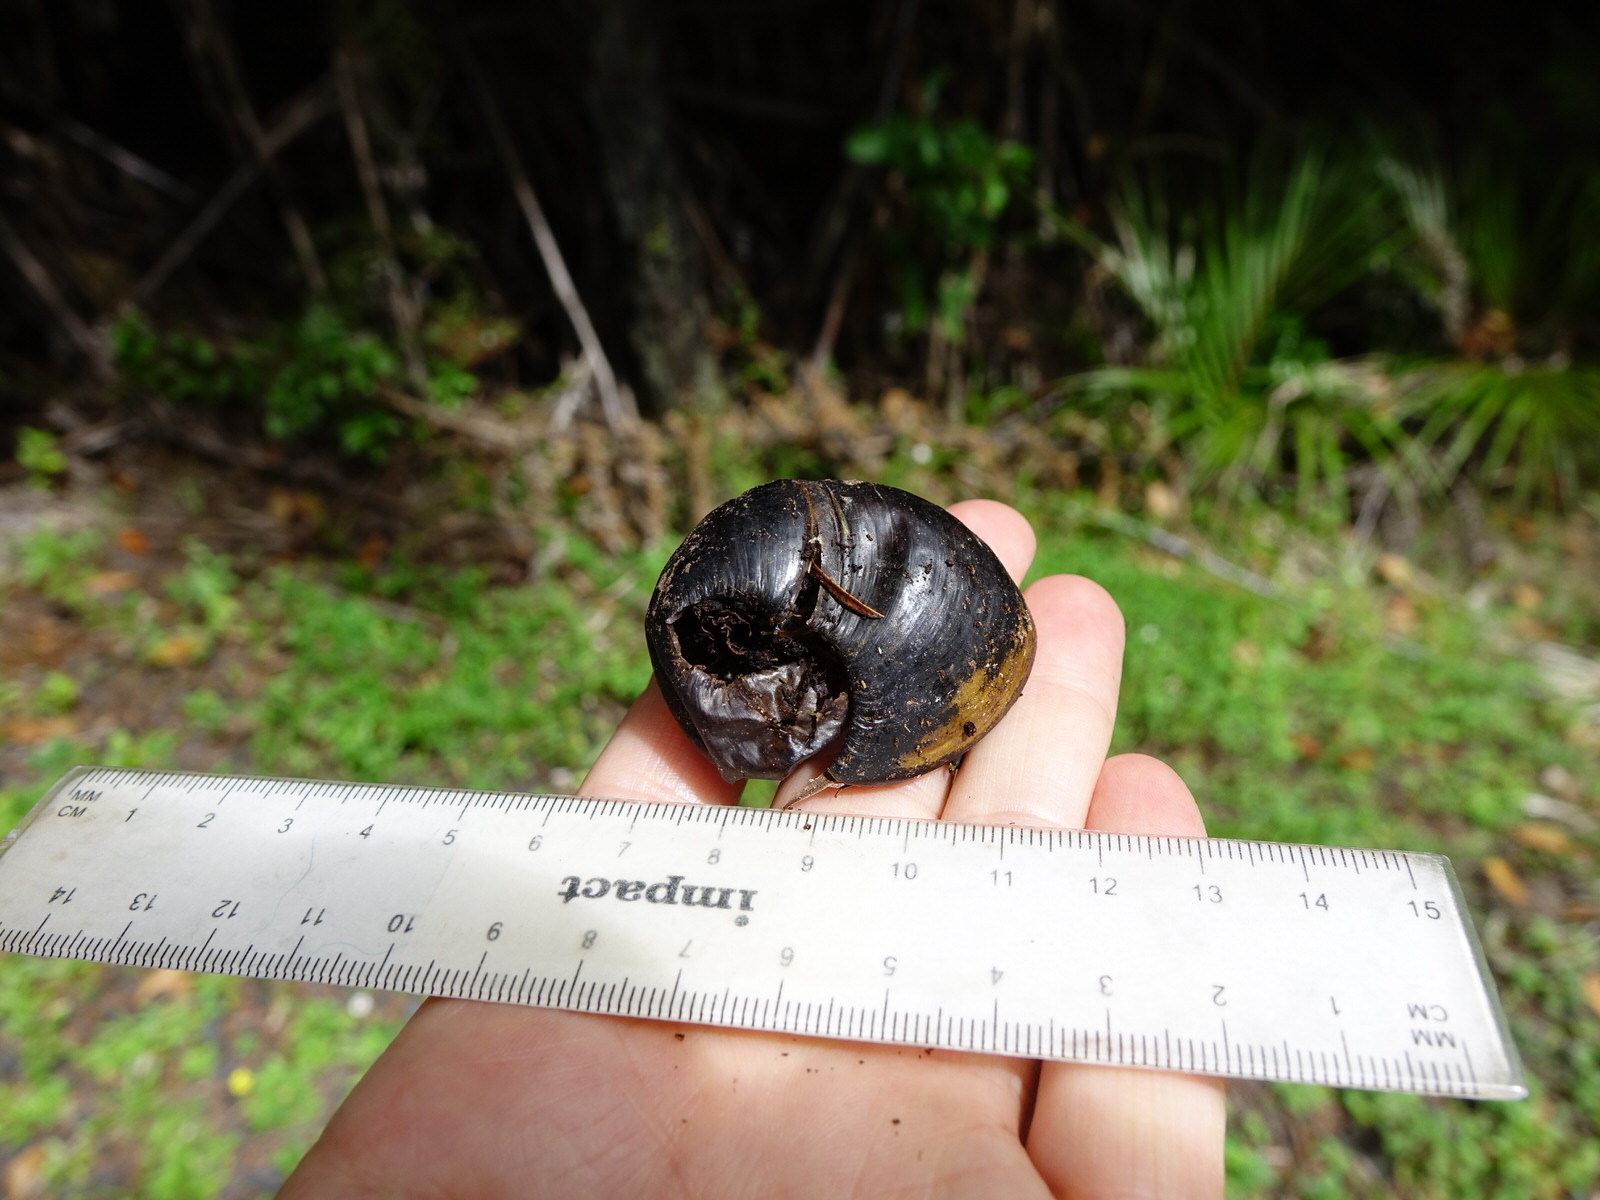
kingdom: Animalia
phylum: Mollusca
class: Gastropoda
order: Stylommatophora
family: Rhytididae
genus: Paryphanta
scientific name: Paryphanta busbyi
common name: Kauri snail
